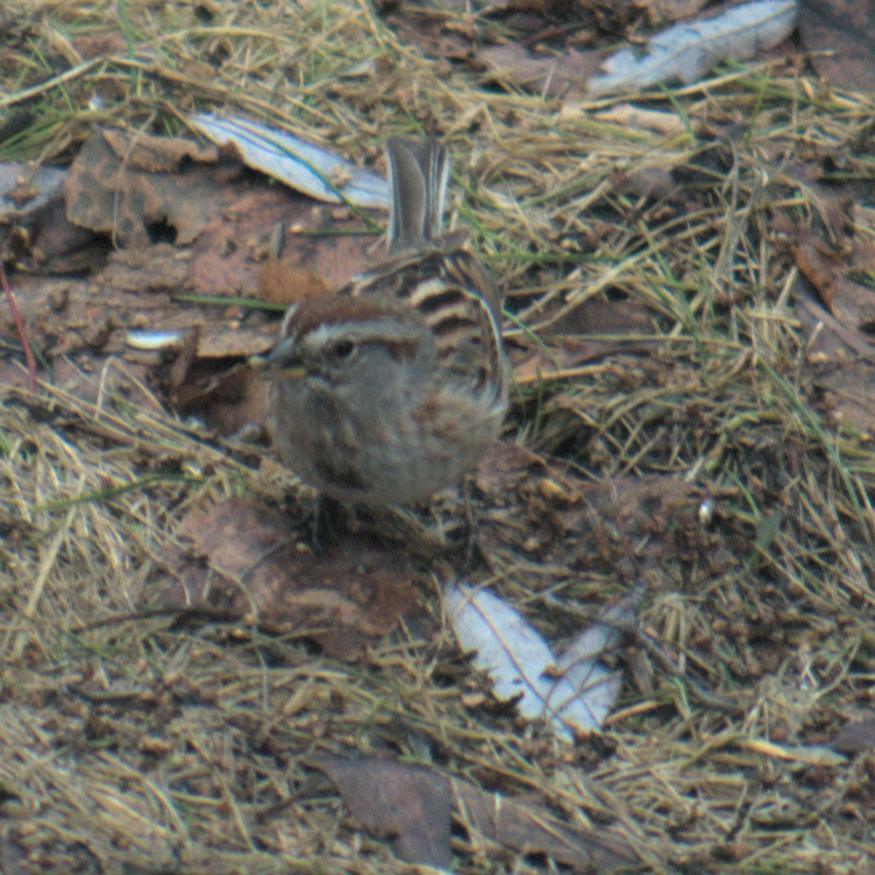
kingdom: Animalia
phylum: Chordata
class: Aves
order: Passeriformes
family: Passerellidae
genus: Spizelloides
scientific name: Spizelloides arborea
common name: American tree sparrow
